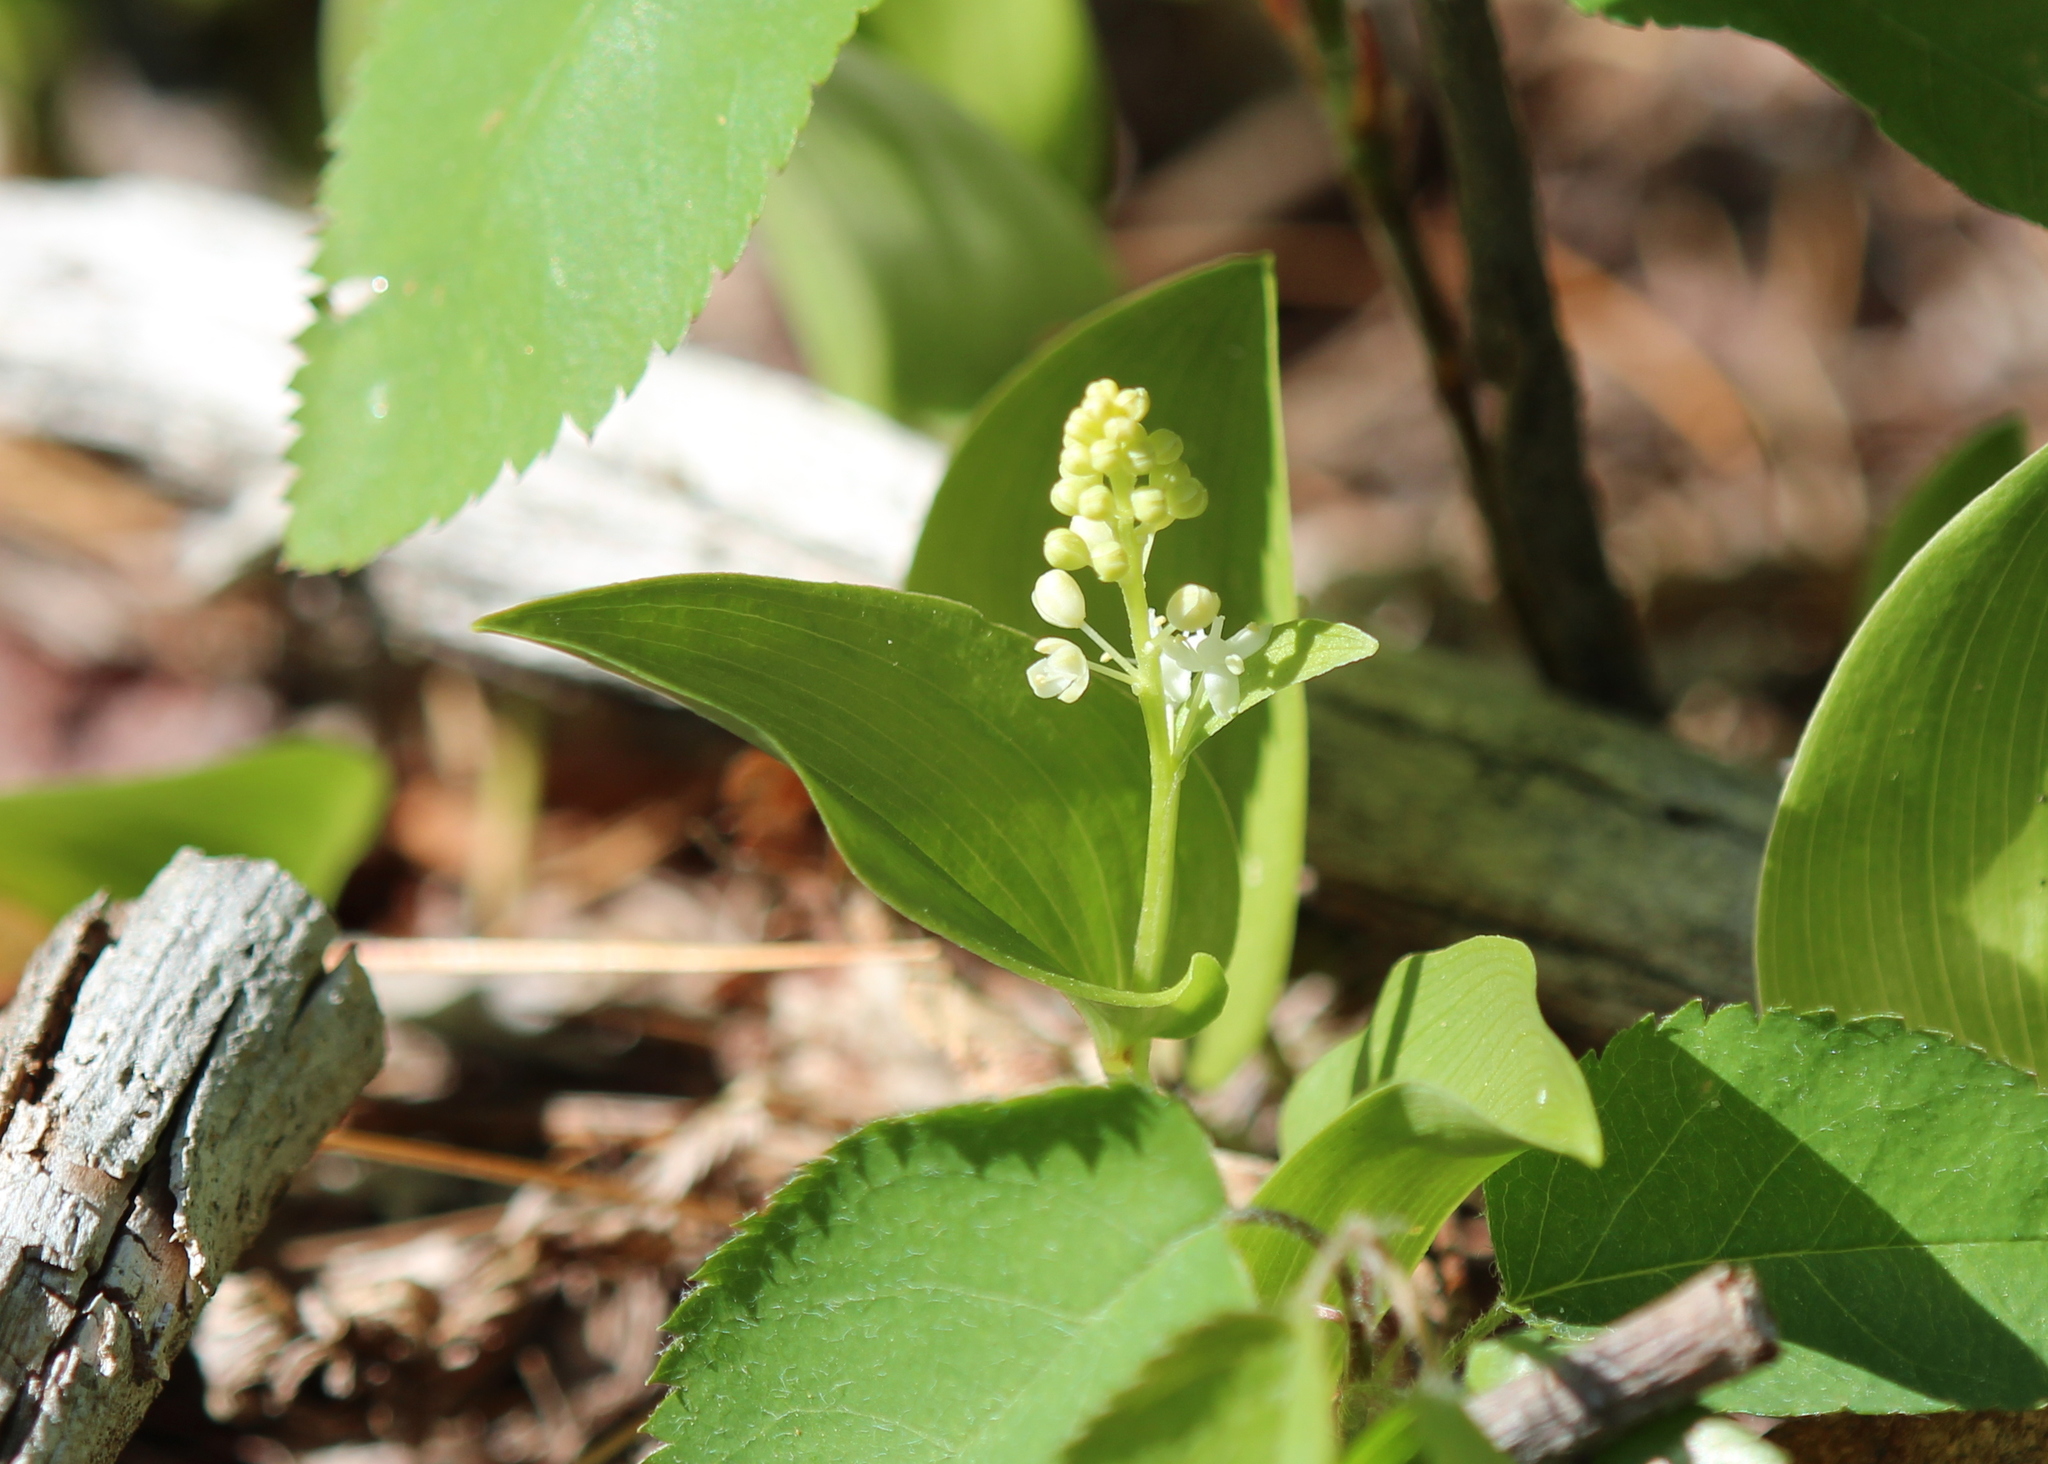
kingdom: Plantae
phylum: Tracheophyta
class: Liliopsida
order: Asparagales
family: Asparagaceae
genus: Maianthemum
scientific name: Maianthemum canadense
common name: False lily-of-the-valley
